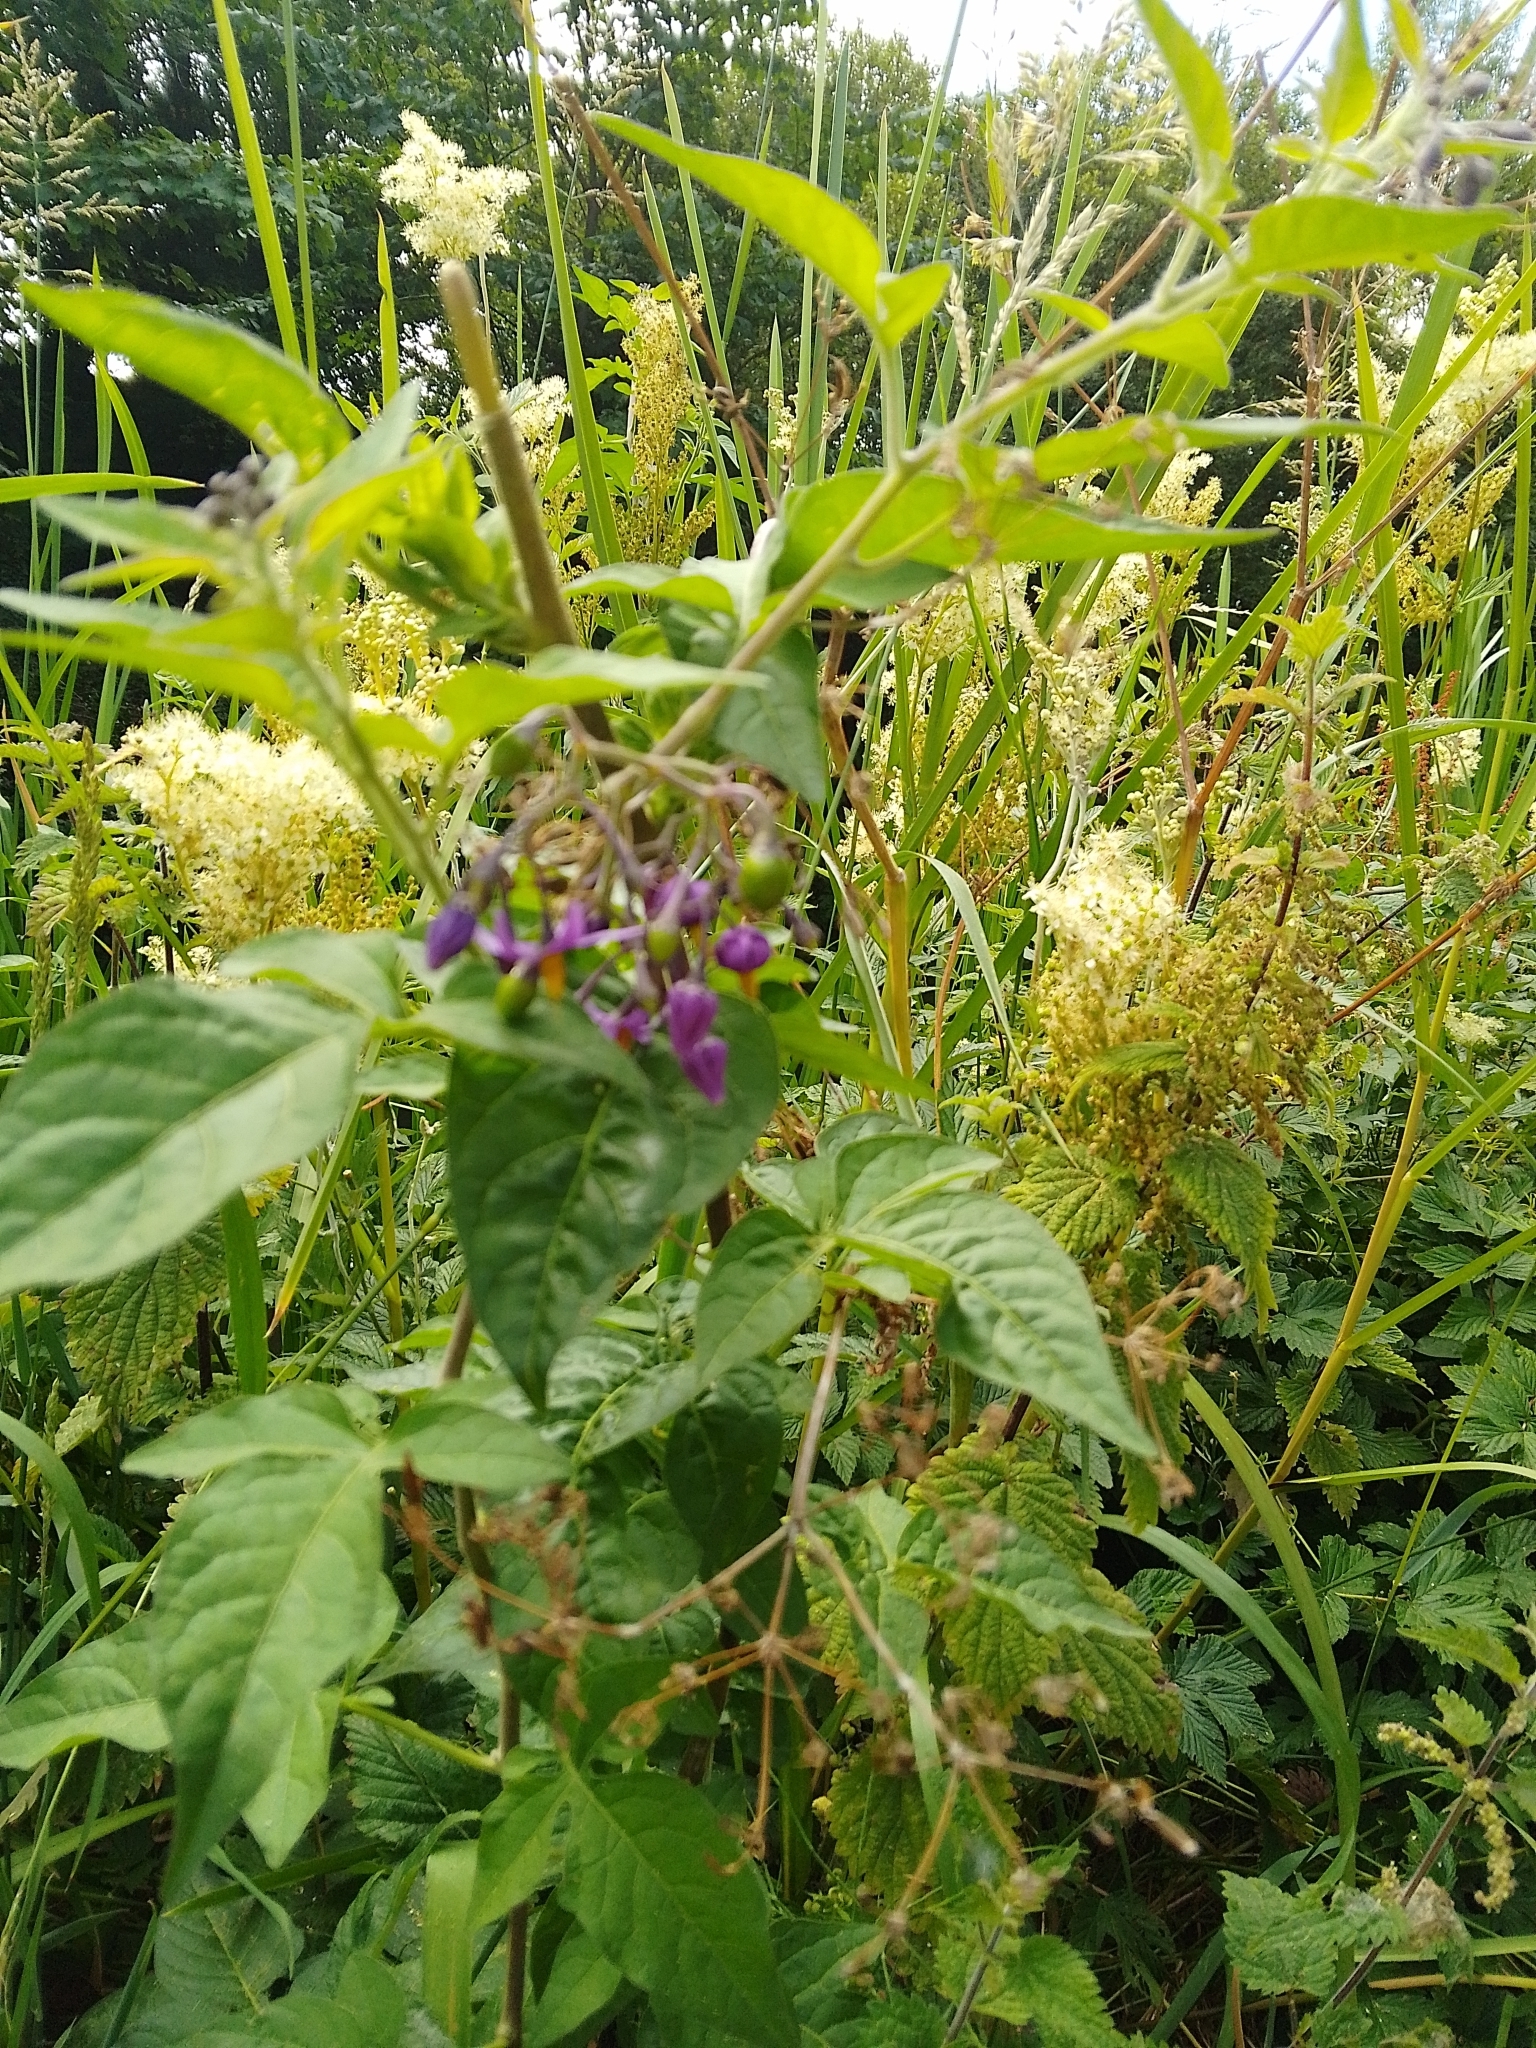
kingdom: Plantae
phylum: Tracheophyta
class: Magnoliopsida
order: Solanales
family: Solanaceae
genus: Solanum
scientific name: Solanum dulcamara
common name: Climbing nightshade
